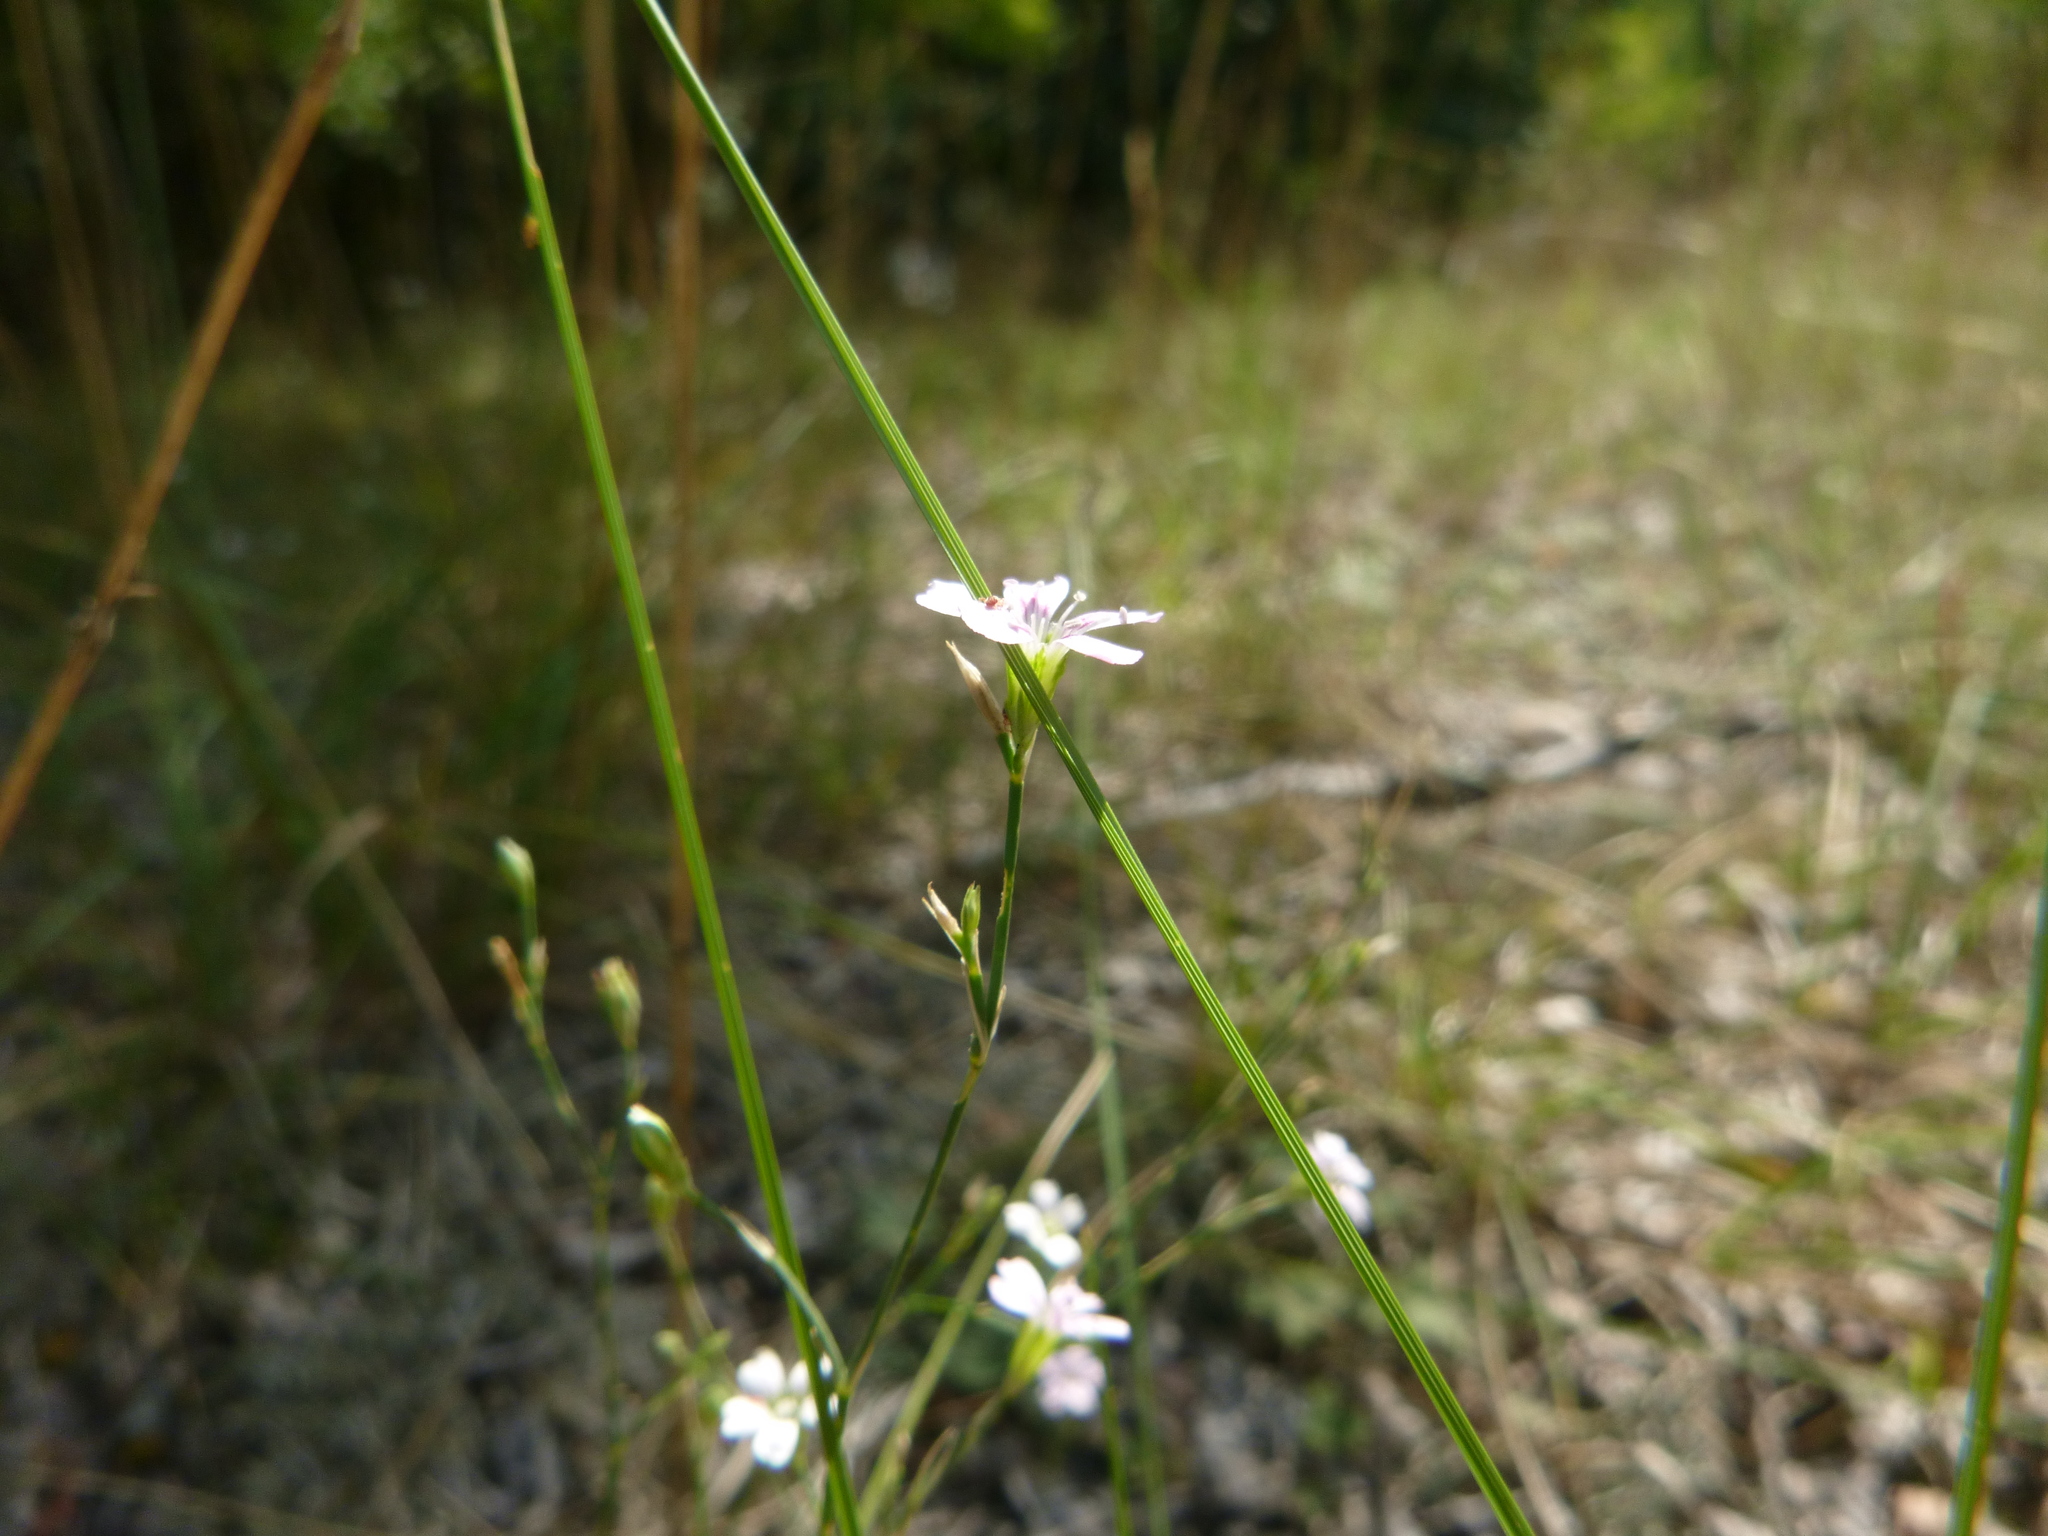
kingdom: Plantae
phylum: Tracheophyta
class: Magnoliopsida
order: Caryophyllales
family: Caryophyllaceae
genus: Petrorhagia
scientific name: Petrorhagia saxifraga
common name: Tunicflower
